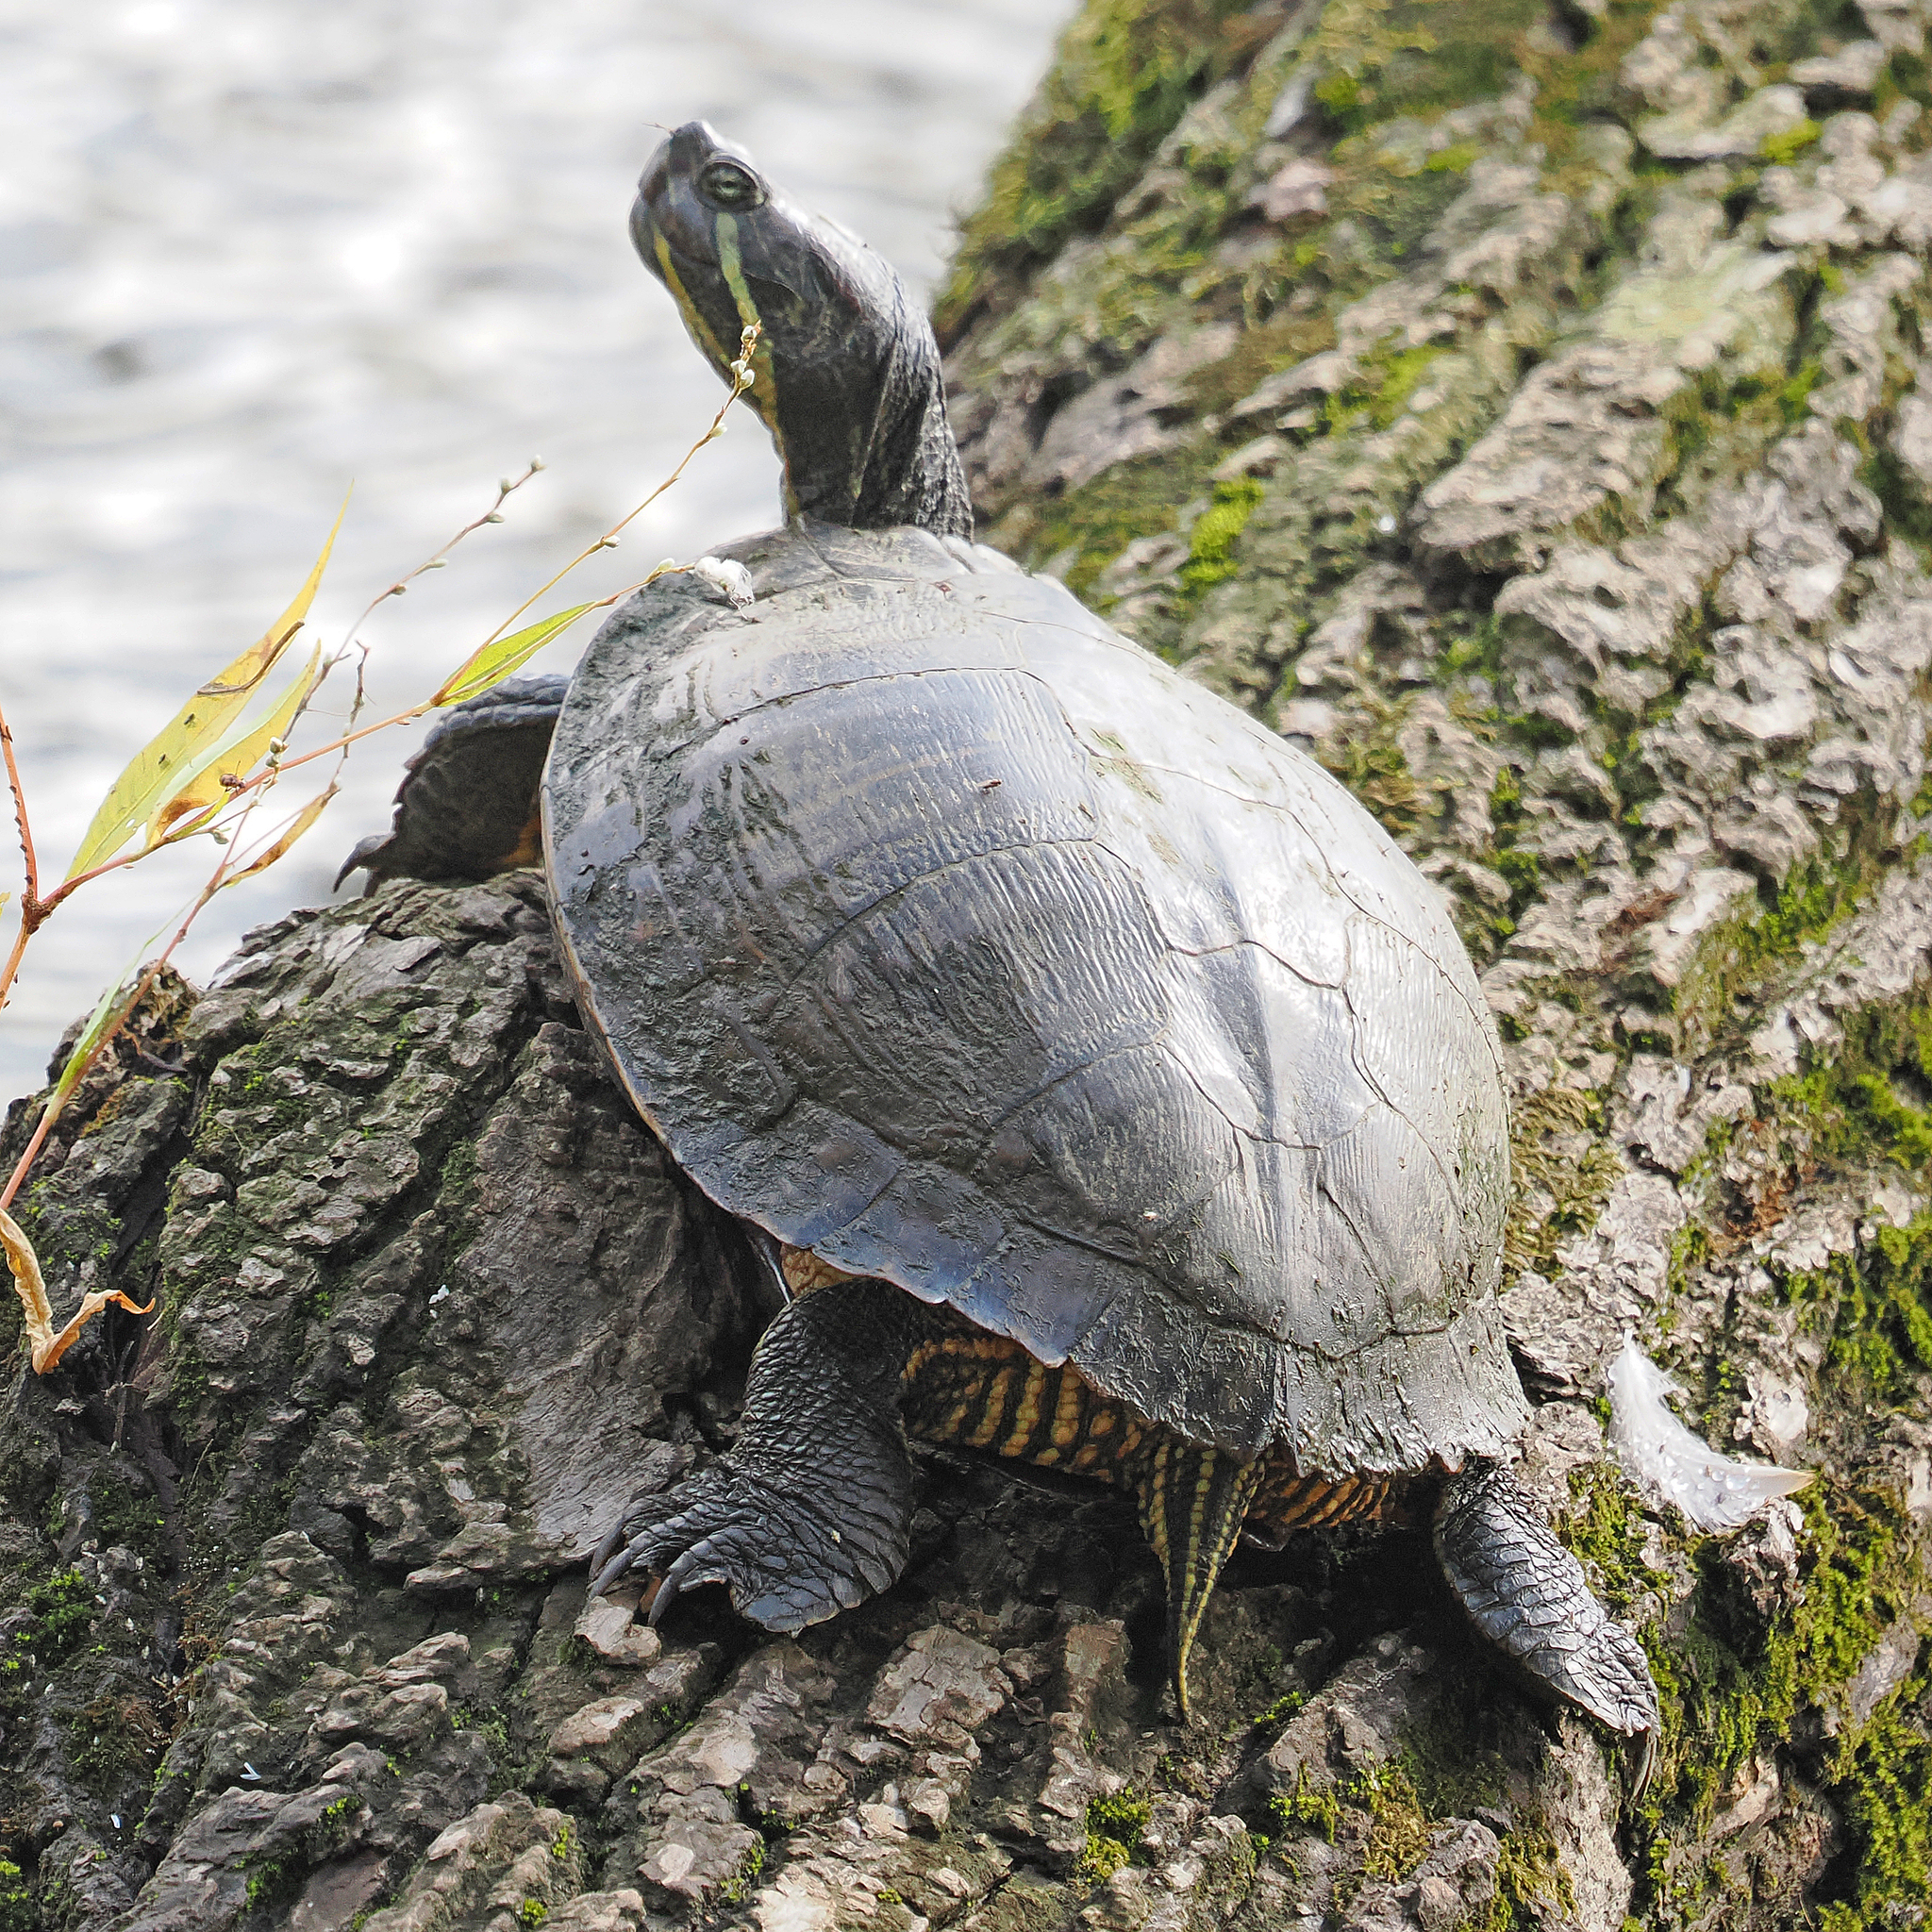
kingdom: Animalia
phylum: Chordata
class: Testudines
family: Emydidae
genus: Trachemys
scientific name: Trachemys scripta
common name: Slider
